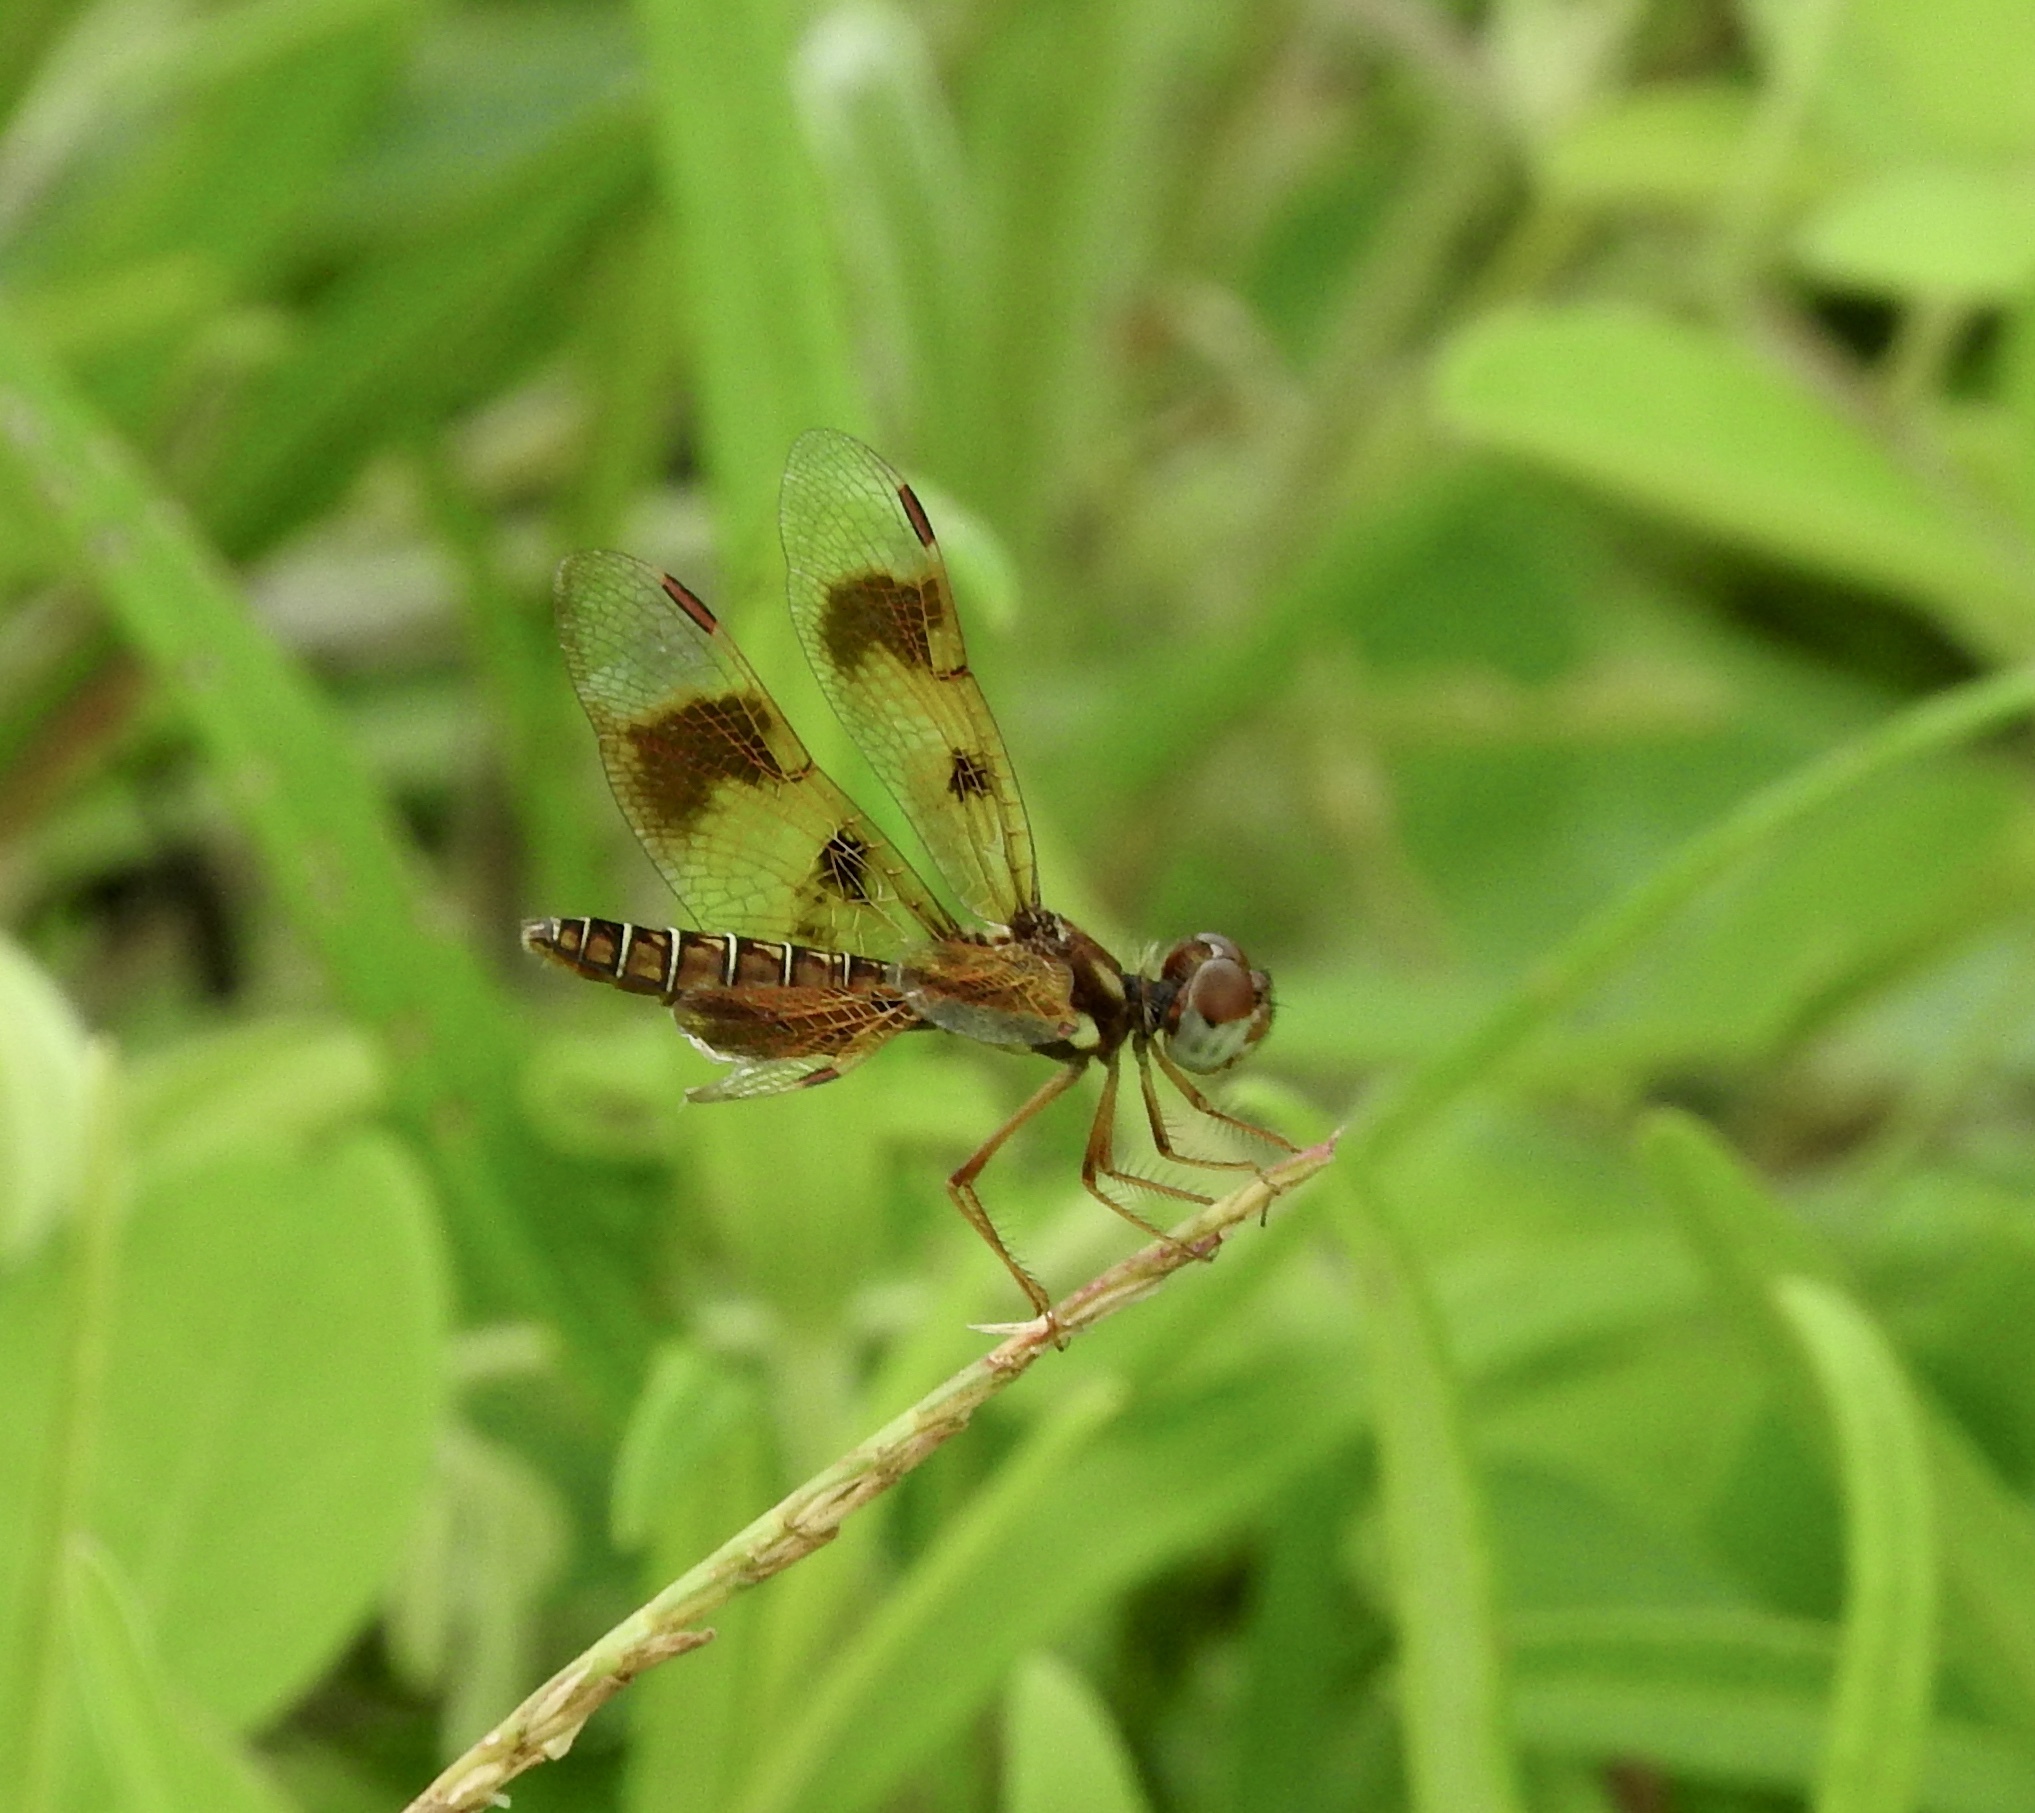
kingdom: Animalia
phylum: Arthropoda
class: Insecta
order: Odonata
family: Libellulidae
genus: Perithemis
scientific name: Perithemis tenera
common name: Eastern amberwing
